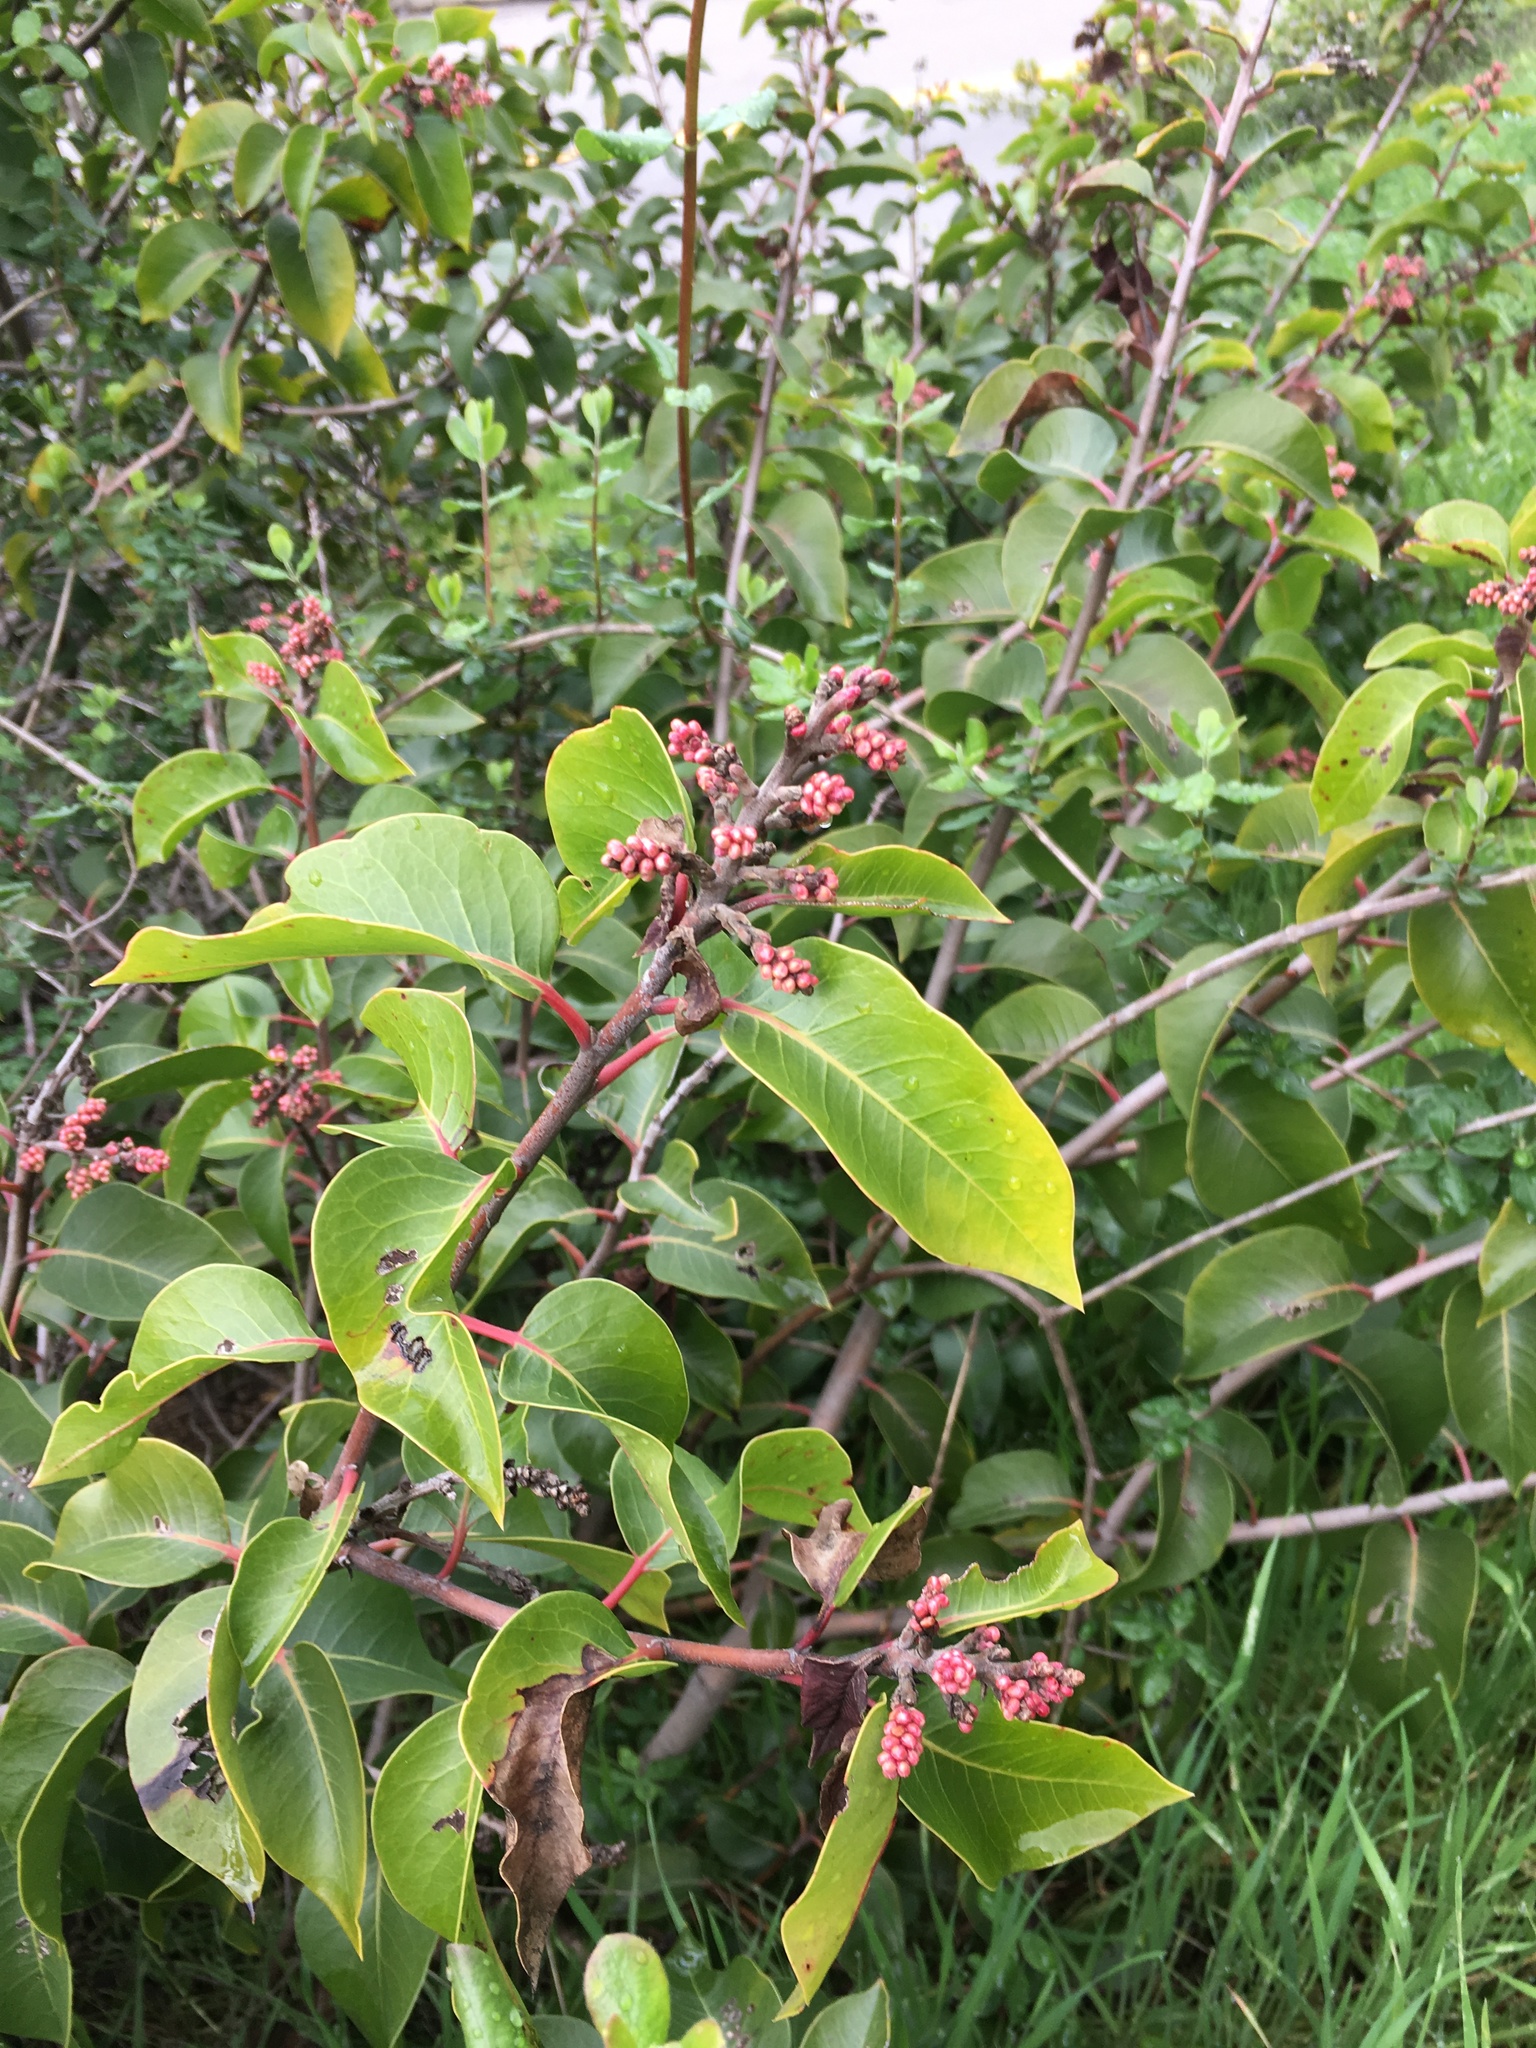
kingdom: Plantae
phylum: Tracheophyta
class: Magnoliopsida
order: Sapindales
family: Anacardiaceae
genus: Rhus
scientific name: Rhus ovata
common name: Sugar sumac
